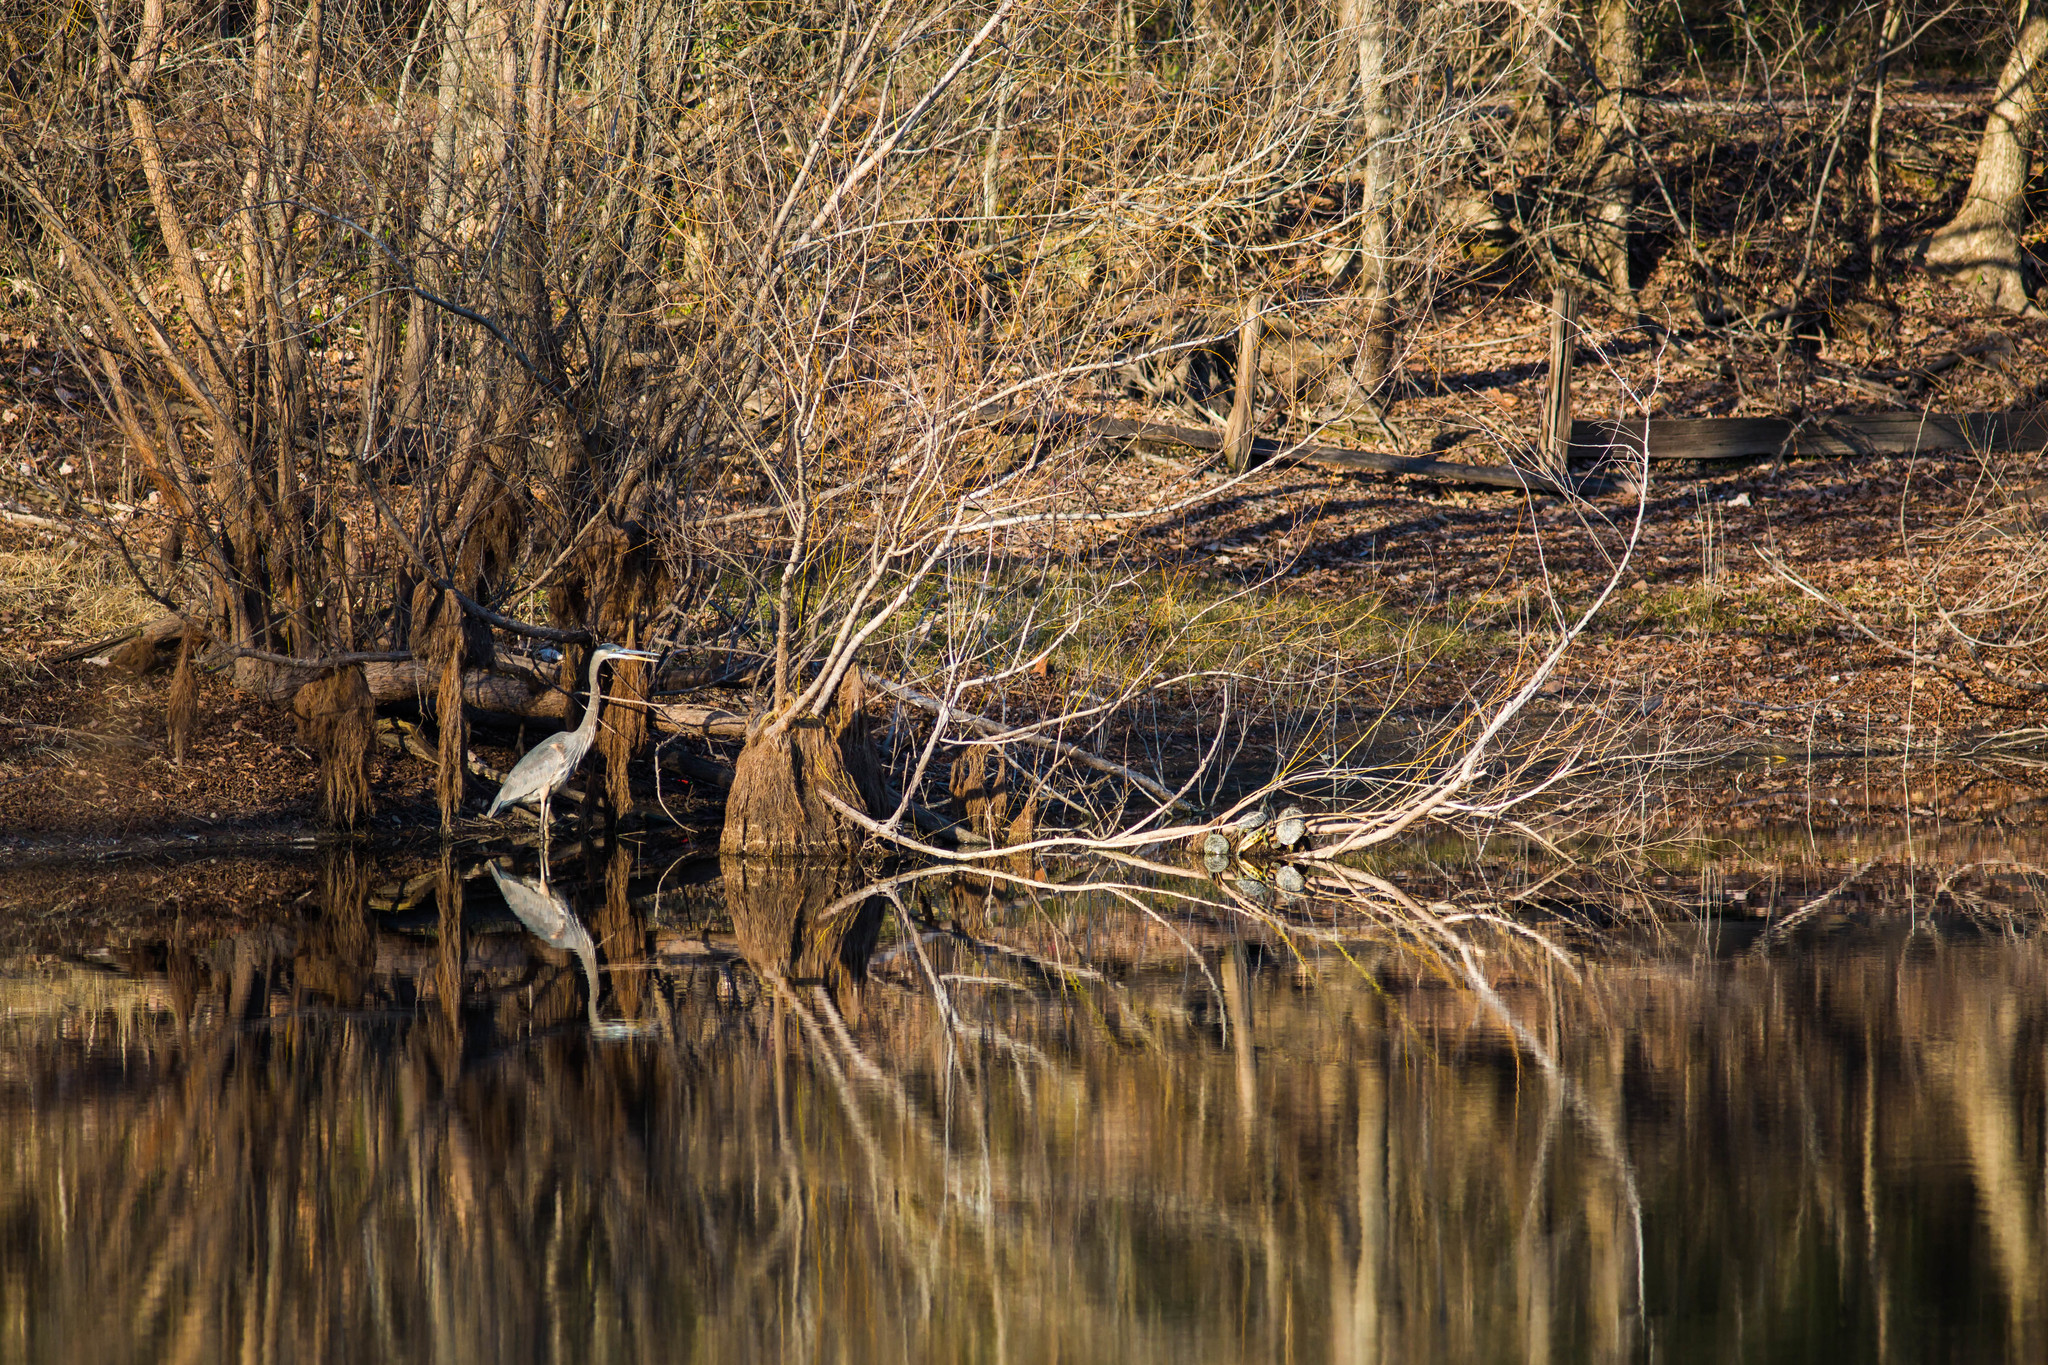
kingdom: Animalia
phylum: Chordata
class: Aves
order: Pelecaniformes
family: Ardeidae
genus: Ardea
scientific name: Ardea herodias
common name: Great blue heron
